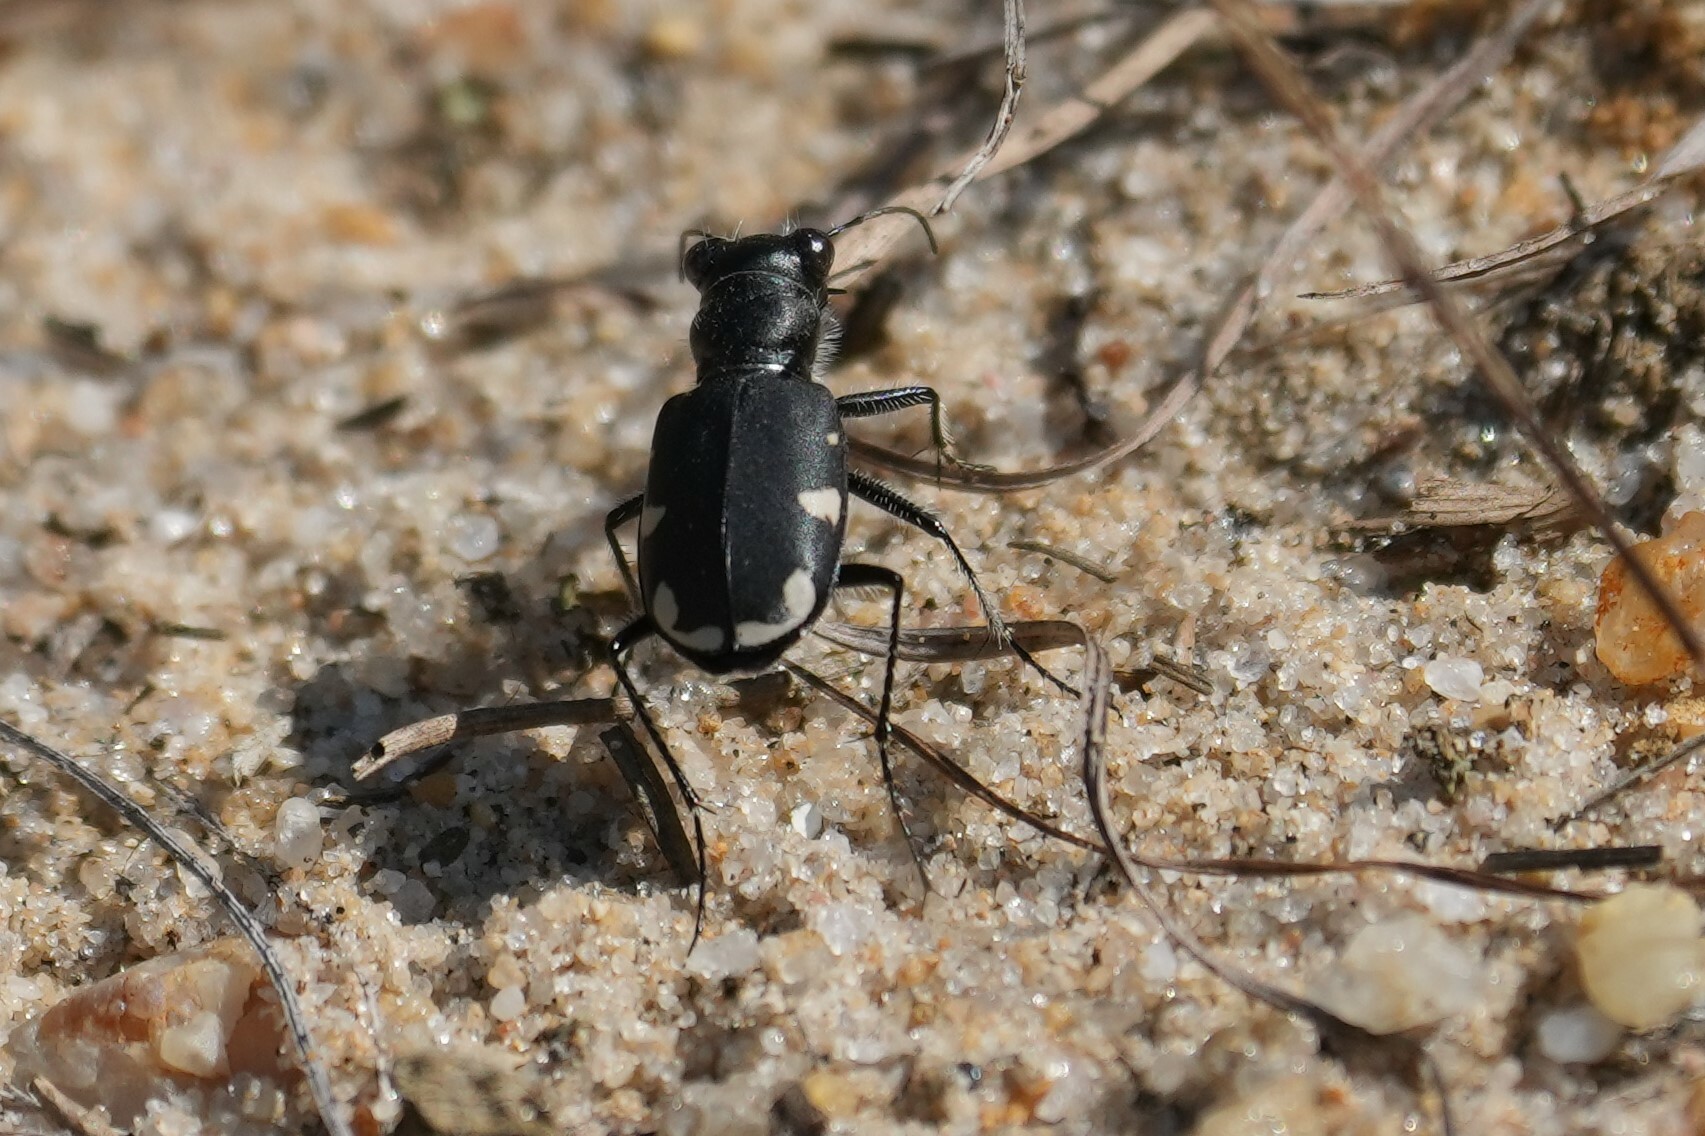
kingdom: Animalia
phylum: Arthropoda
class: Insecta
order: Coleoptera
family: Carabidae
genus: Cicindela
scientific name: Cicindela scutellaris
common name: Festive tiger beetle
